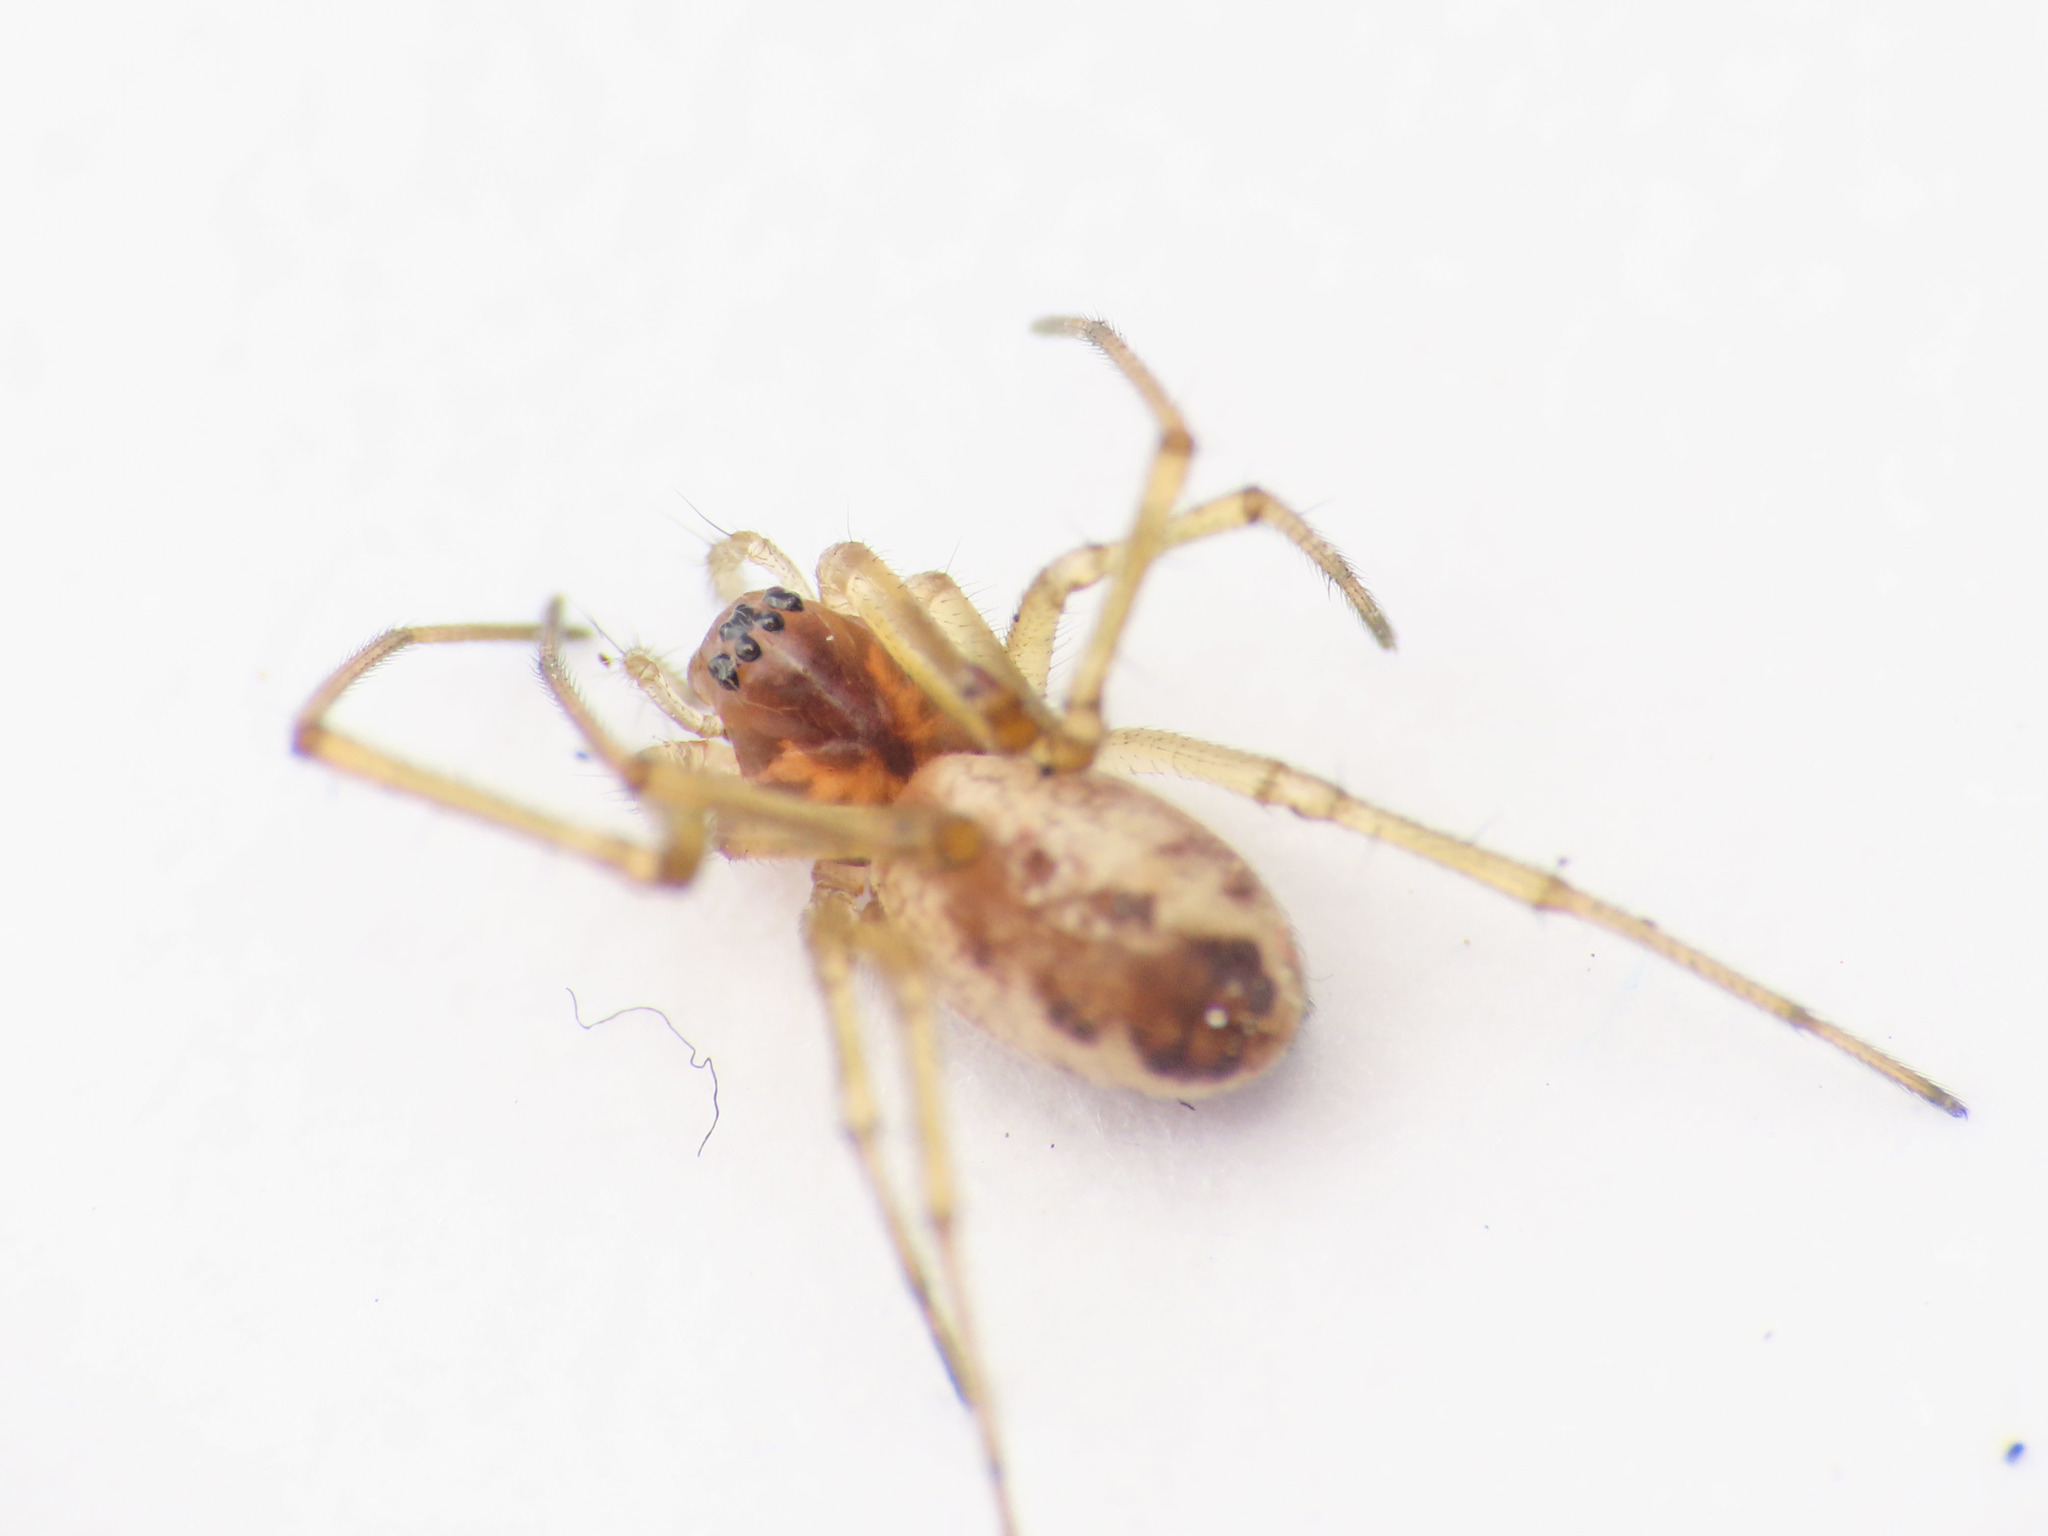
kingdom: Animalia
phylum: Arthropoda
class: Arachnida
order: Araneae
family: Linyphiidae
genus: Neriene
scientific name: Neriene peltata
